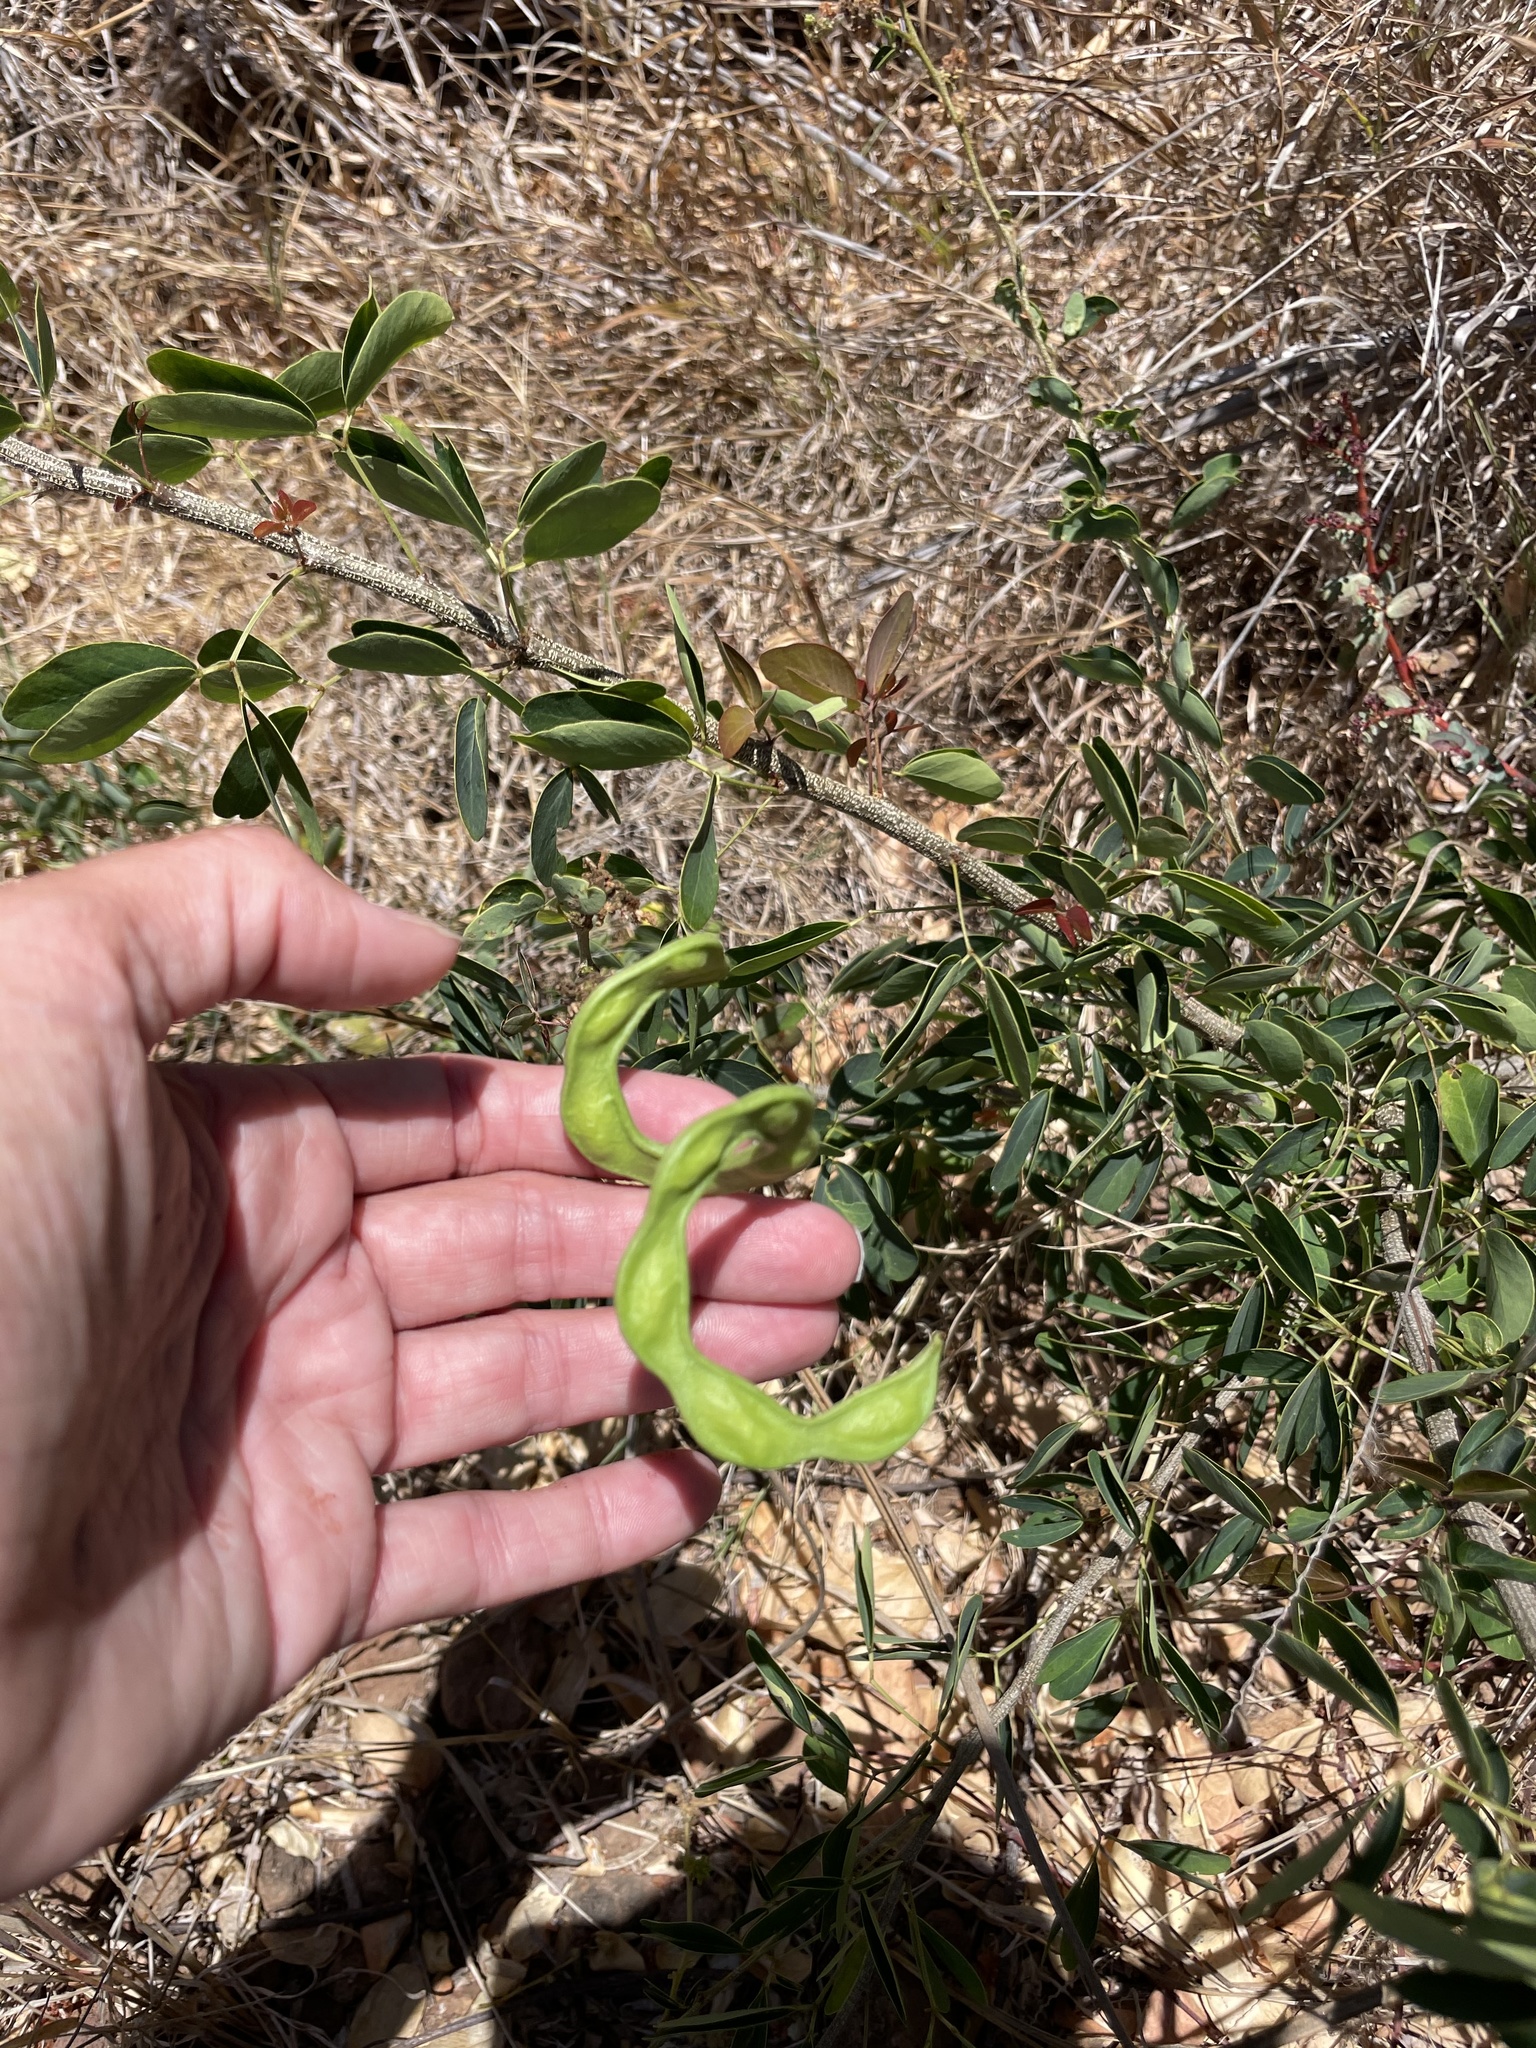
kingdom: Plantae
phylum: Tracheophyta
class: Magnoliopsida
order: Fabales
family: Fabaceae
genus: Pithecellobium
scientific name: Pithecellobium dulce
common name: Monkeypod
